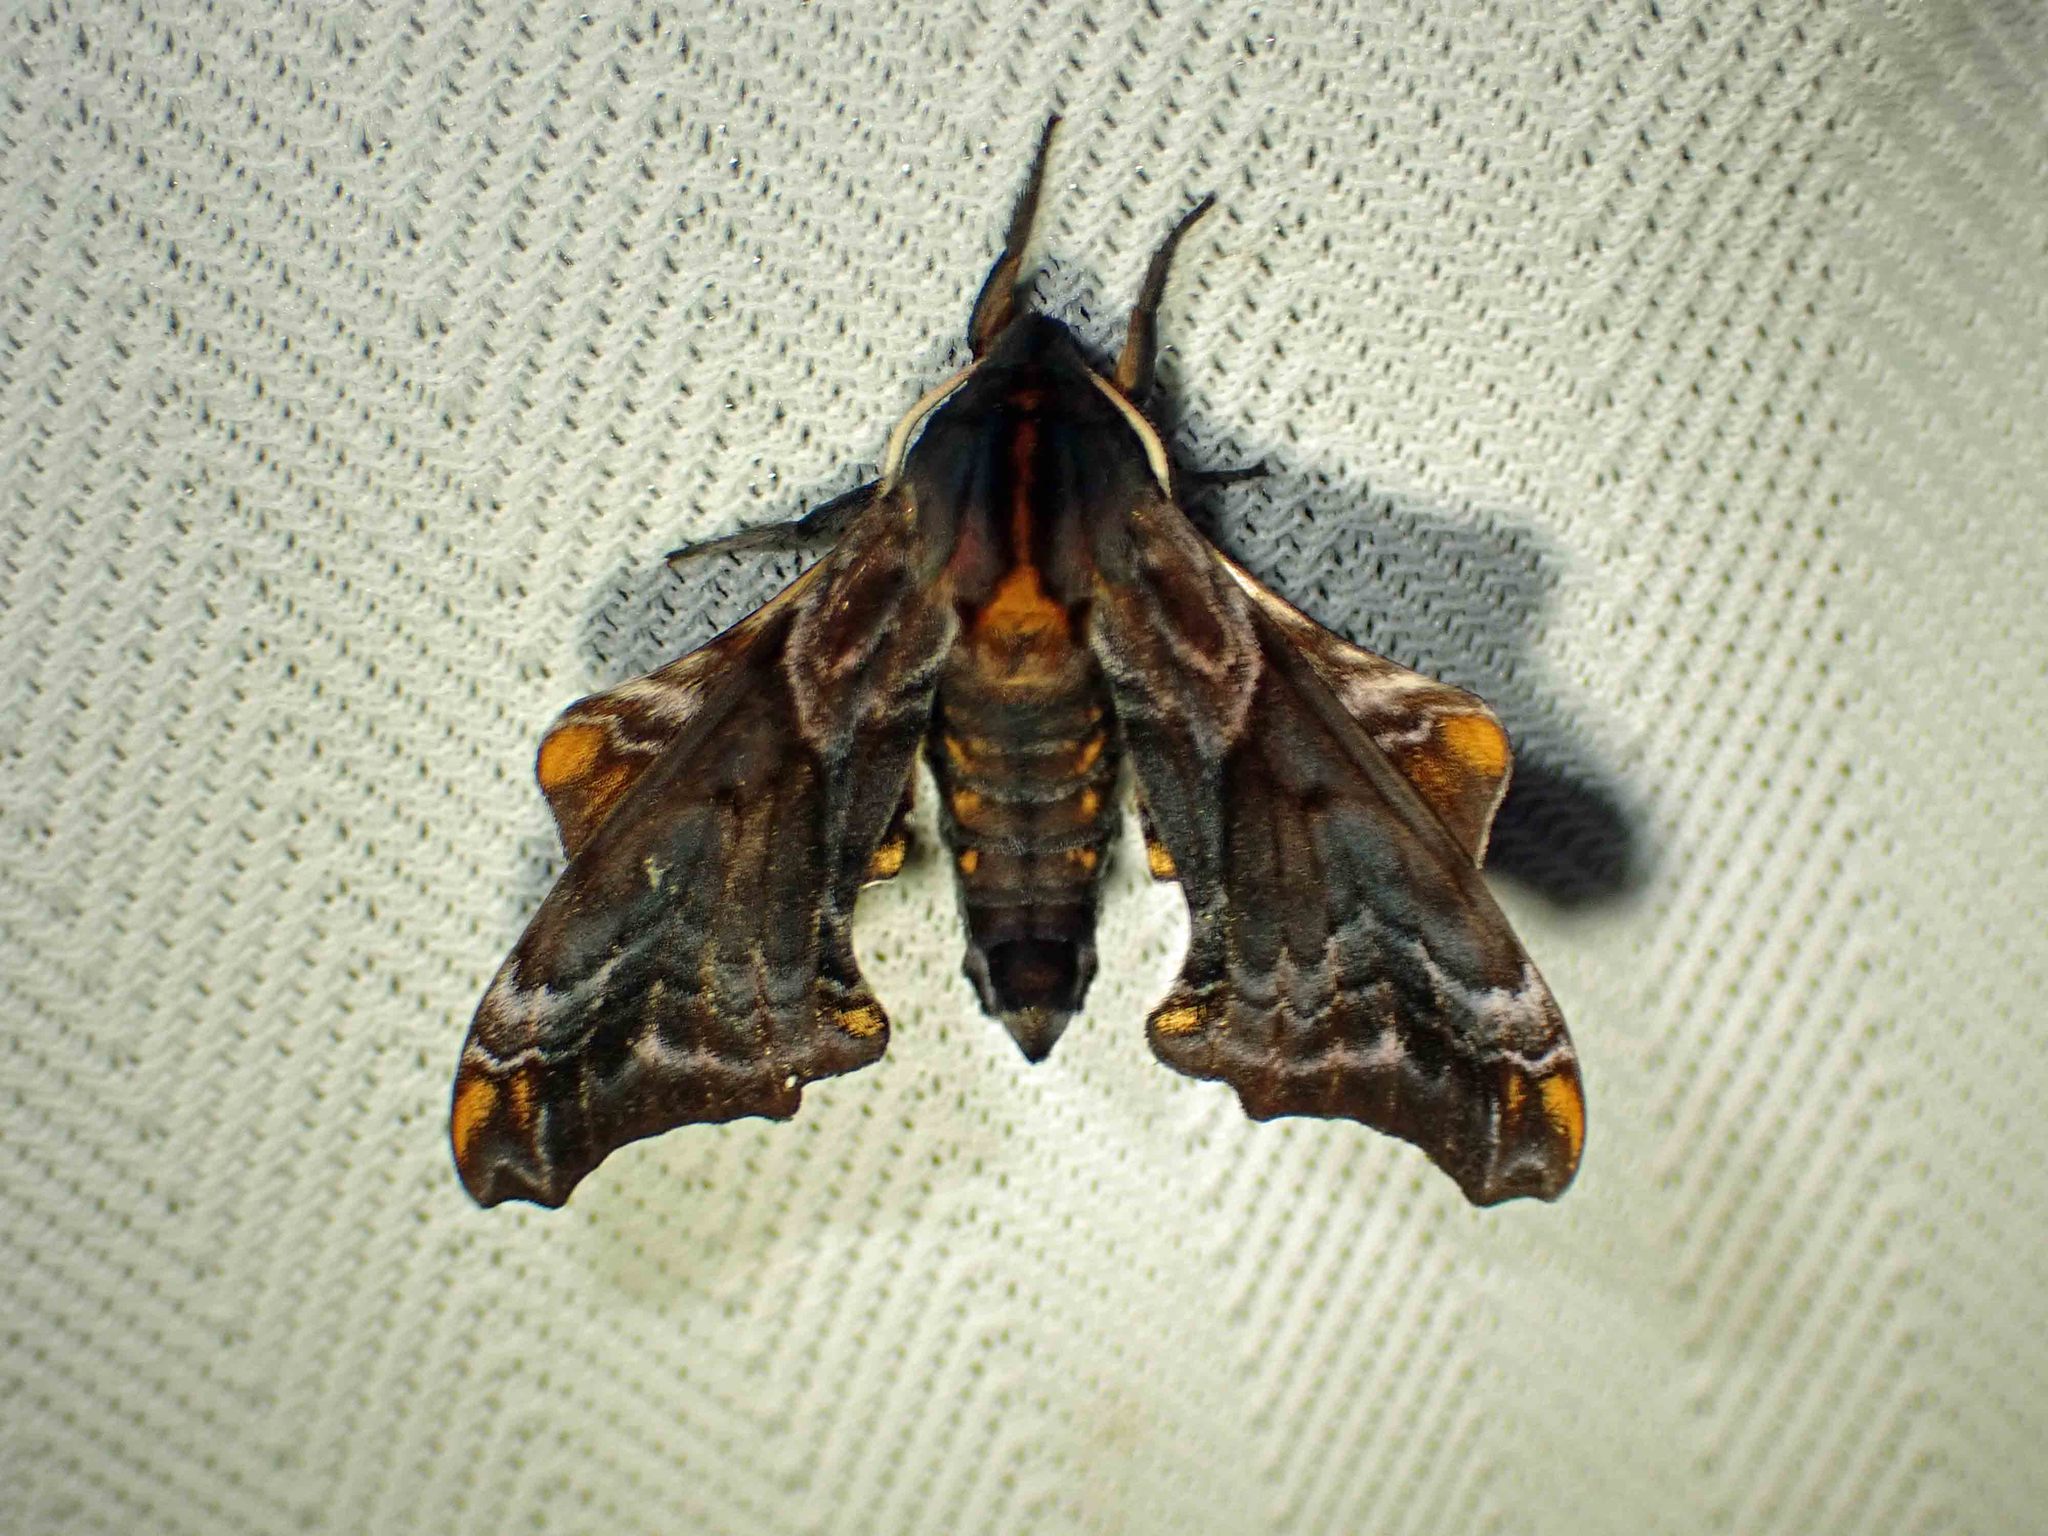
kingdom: Animalia
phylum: Arthropoda
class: Insecta
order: Lepidoptera
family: Sphingidae
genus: Paonias
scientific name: Paonias myops
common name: Small-eyed sphinx
